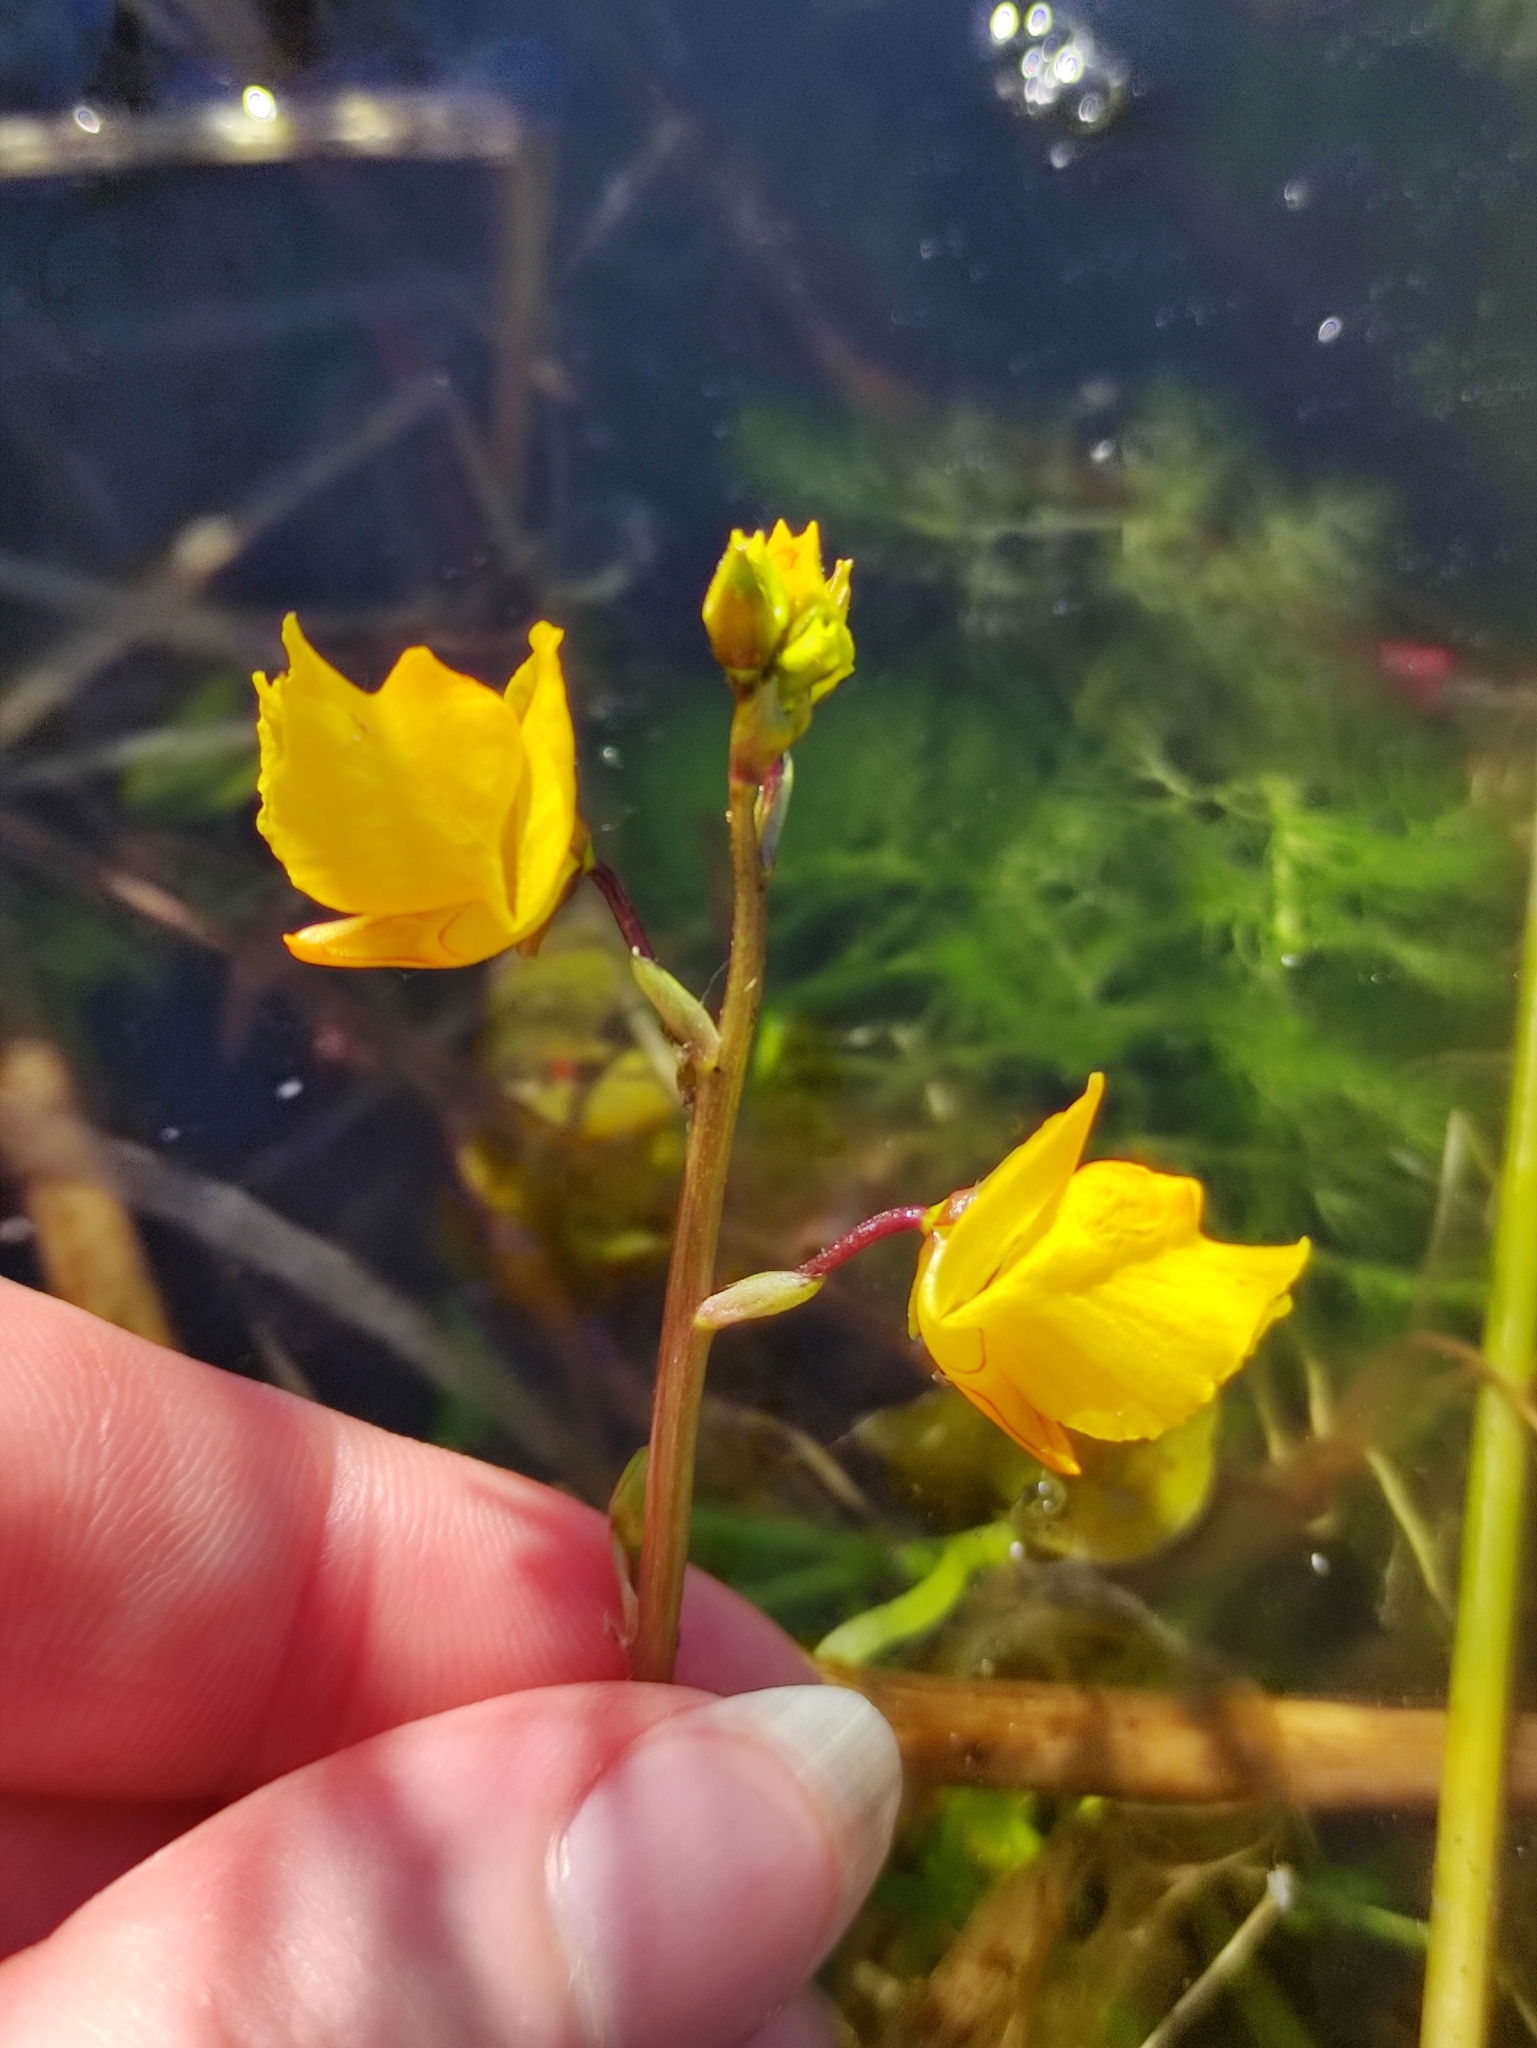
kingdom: Plantae
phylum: Tracheophyta
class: Magnoliopsida
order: Lamiales
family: Lentibulariaceae
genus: Utricularia
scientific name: Utricularia vulgaris
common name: Greater bladderwort
